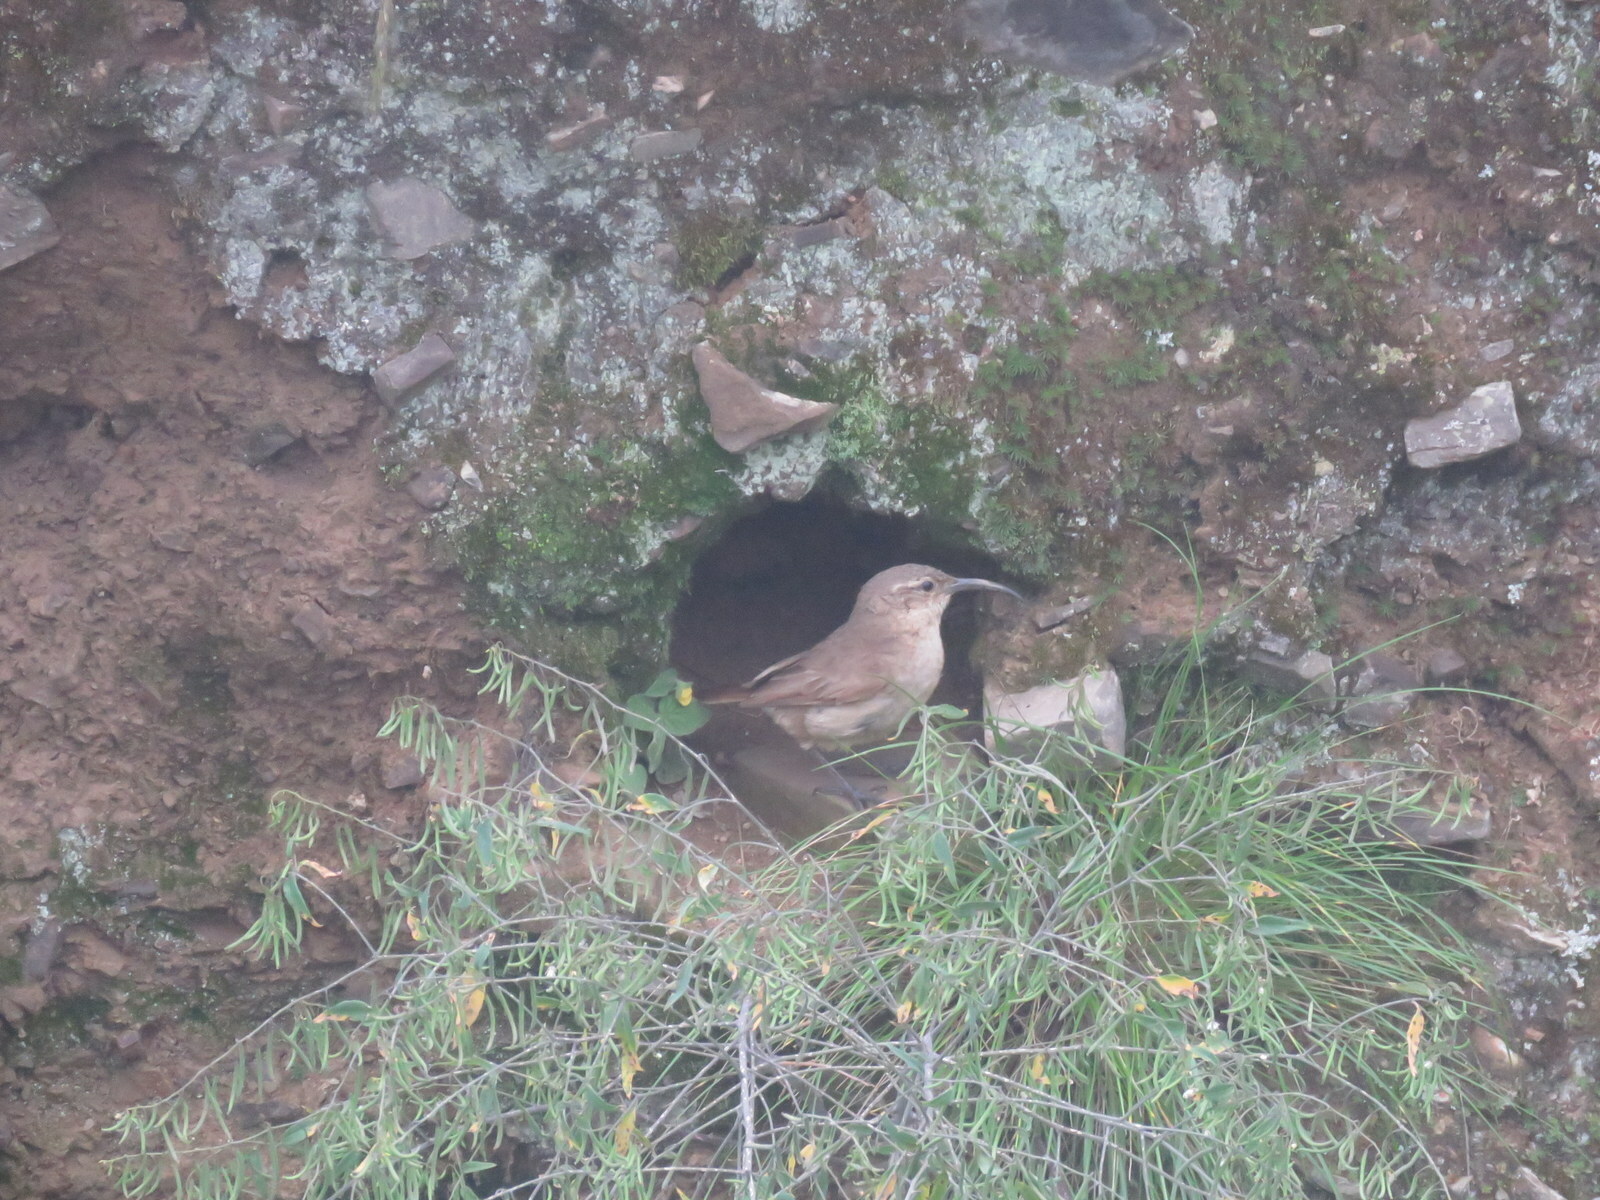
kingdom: Animalia
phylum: Chordata
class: Aves
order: Passeriformes
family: Furnariidae
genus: Upucerthia
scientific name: Upucerthia validirostris
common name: Buff-breasted earthcreeper
